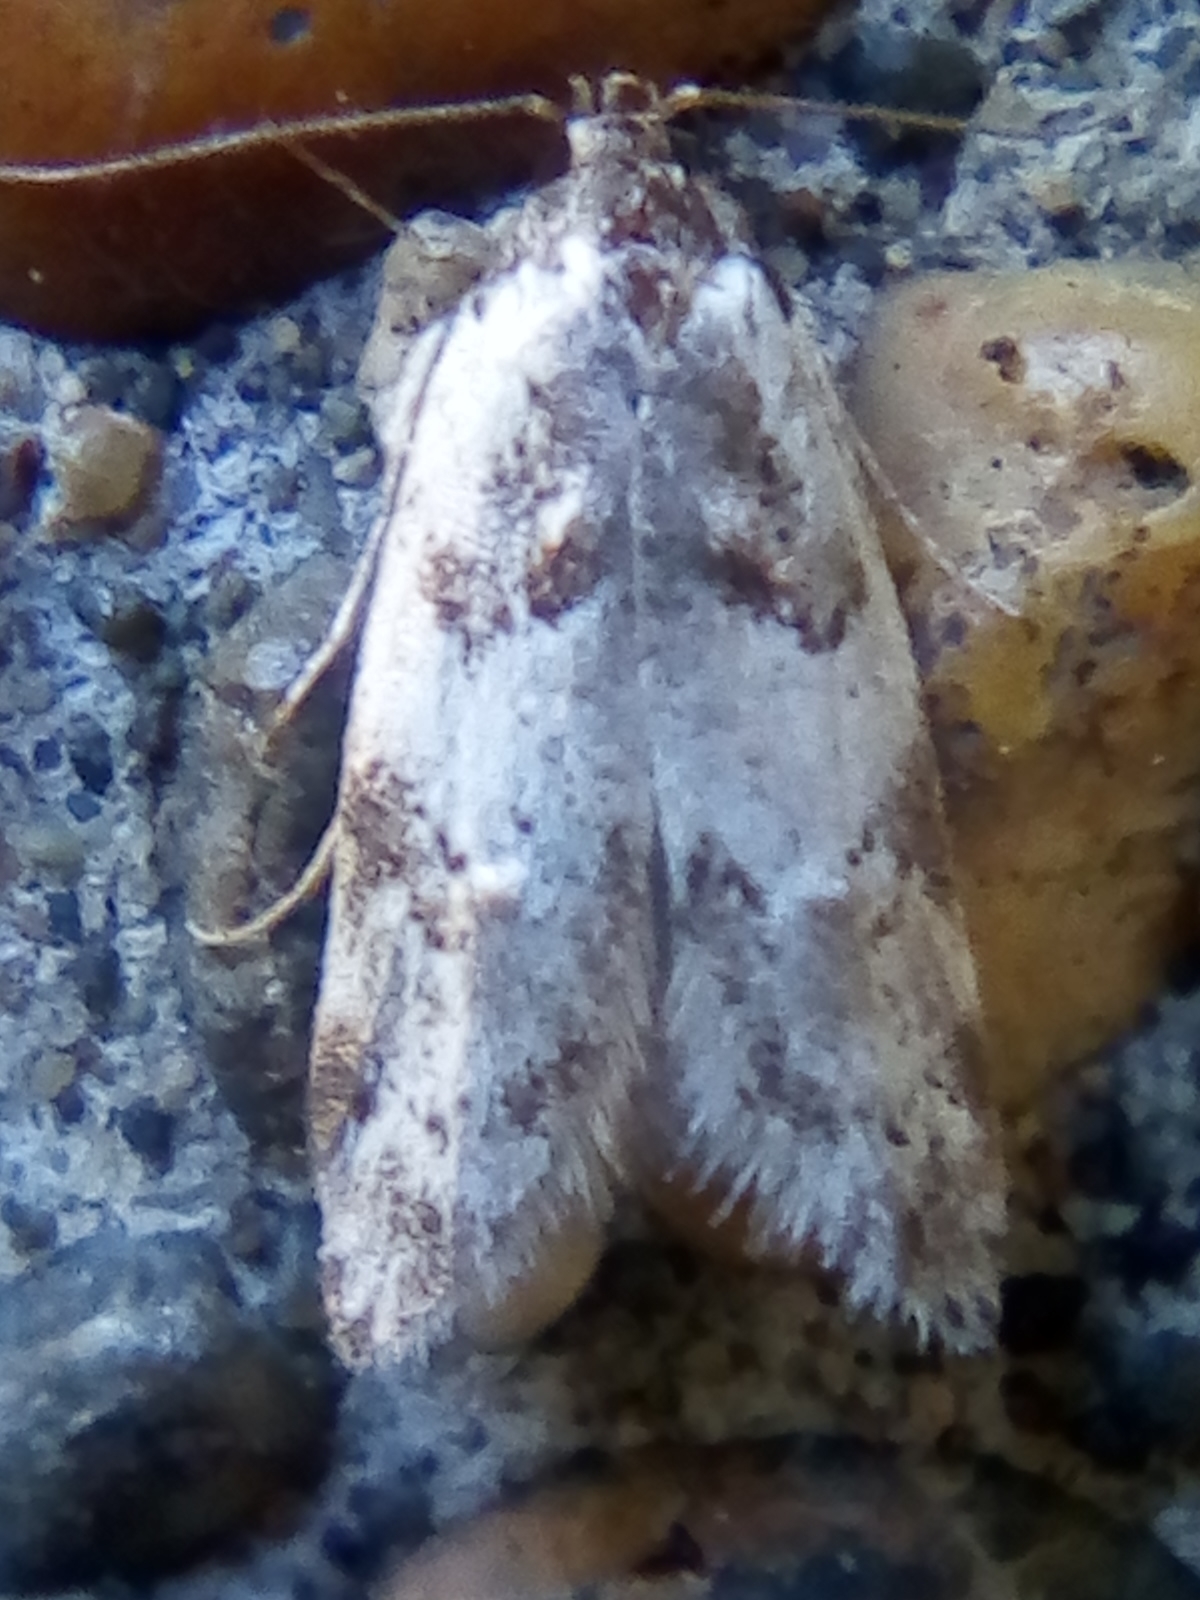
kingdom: Animalia
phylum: Arthropoda
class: Insecta
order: Lepidoptera
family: Oecophoridae
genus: Trachypepla
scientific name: Trachypepla galaxias
